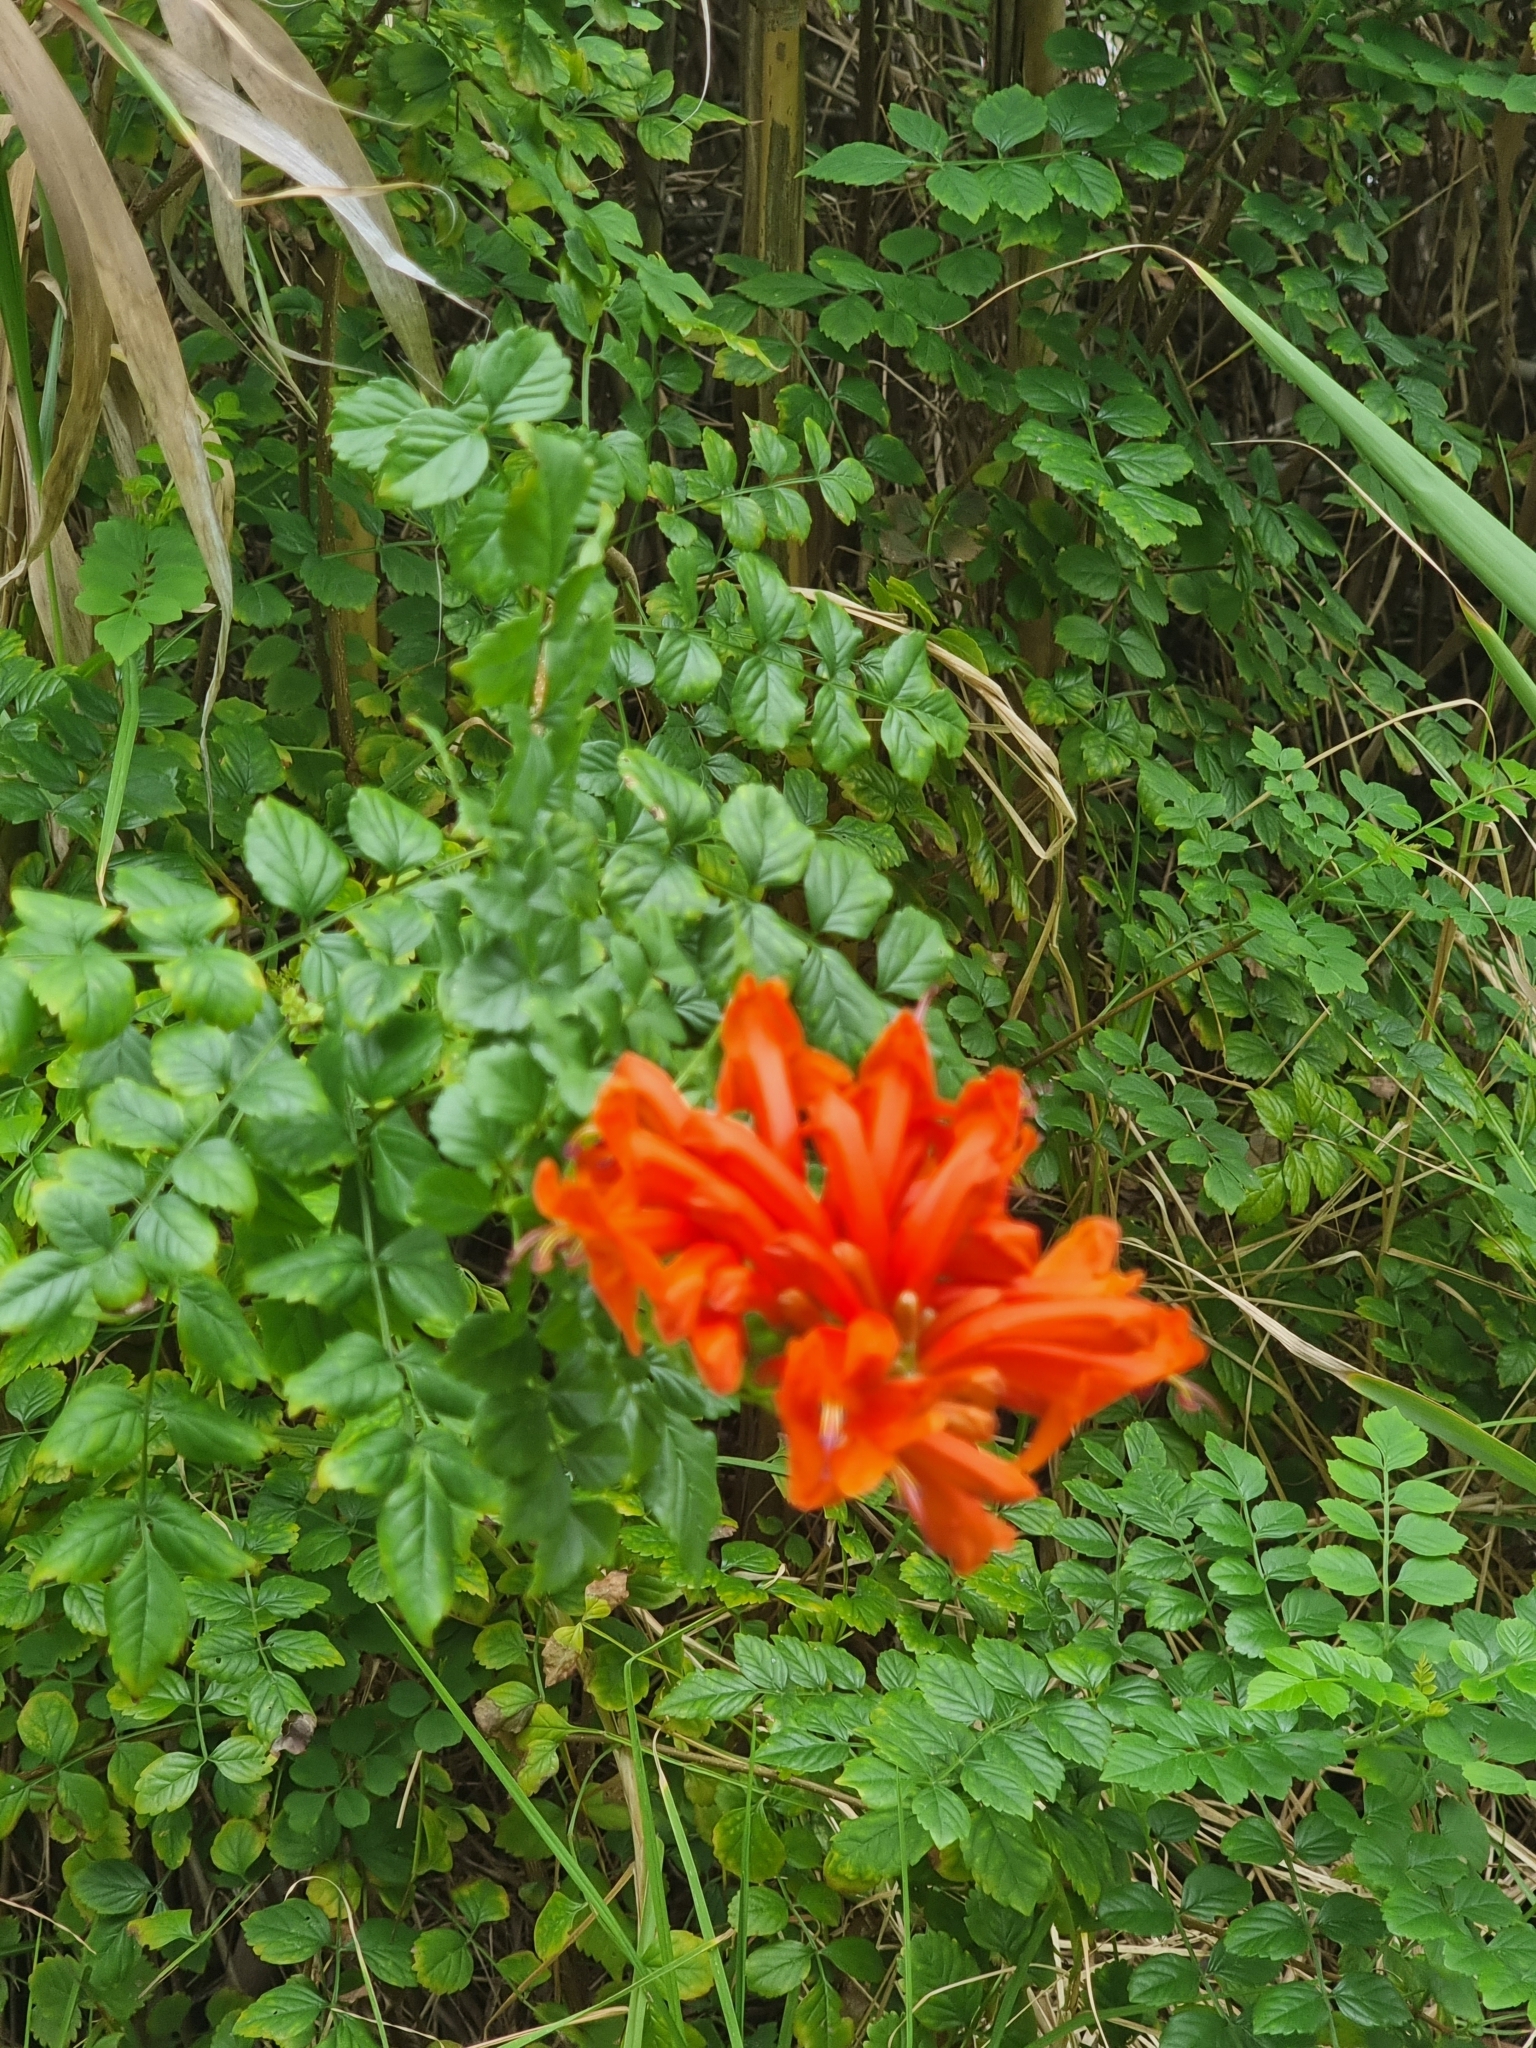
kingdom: Plantae
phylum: Tracheophyta
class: Magnoliopsida
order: Lamiales
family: Bignoniaceae
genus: Tecomaria
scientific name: Tecomaria capensis
